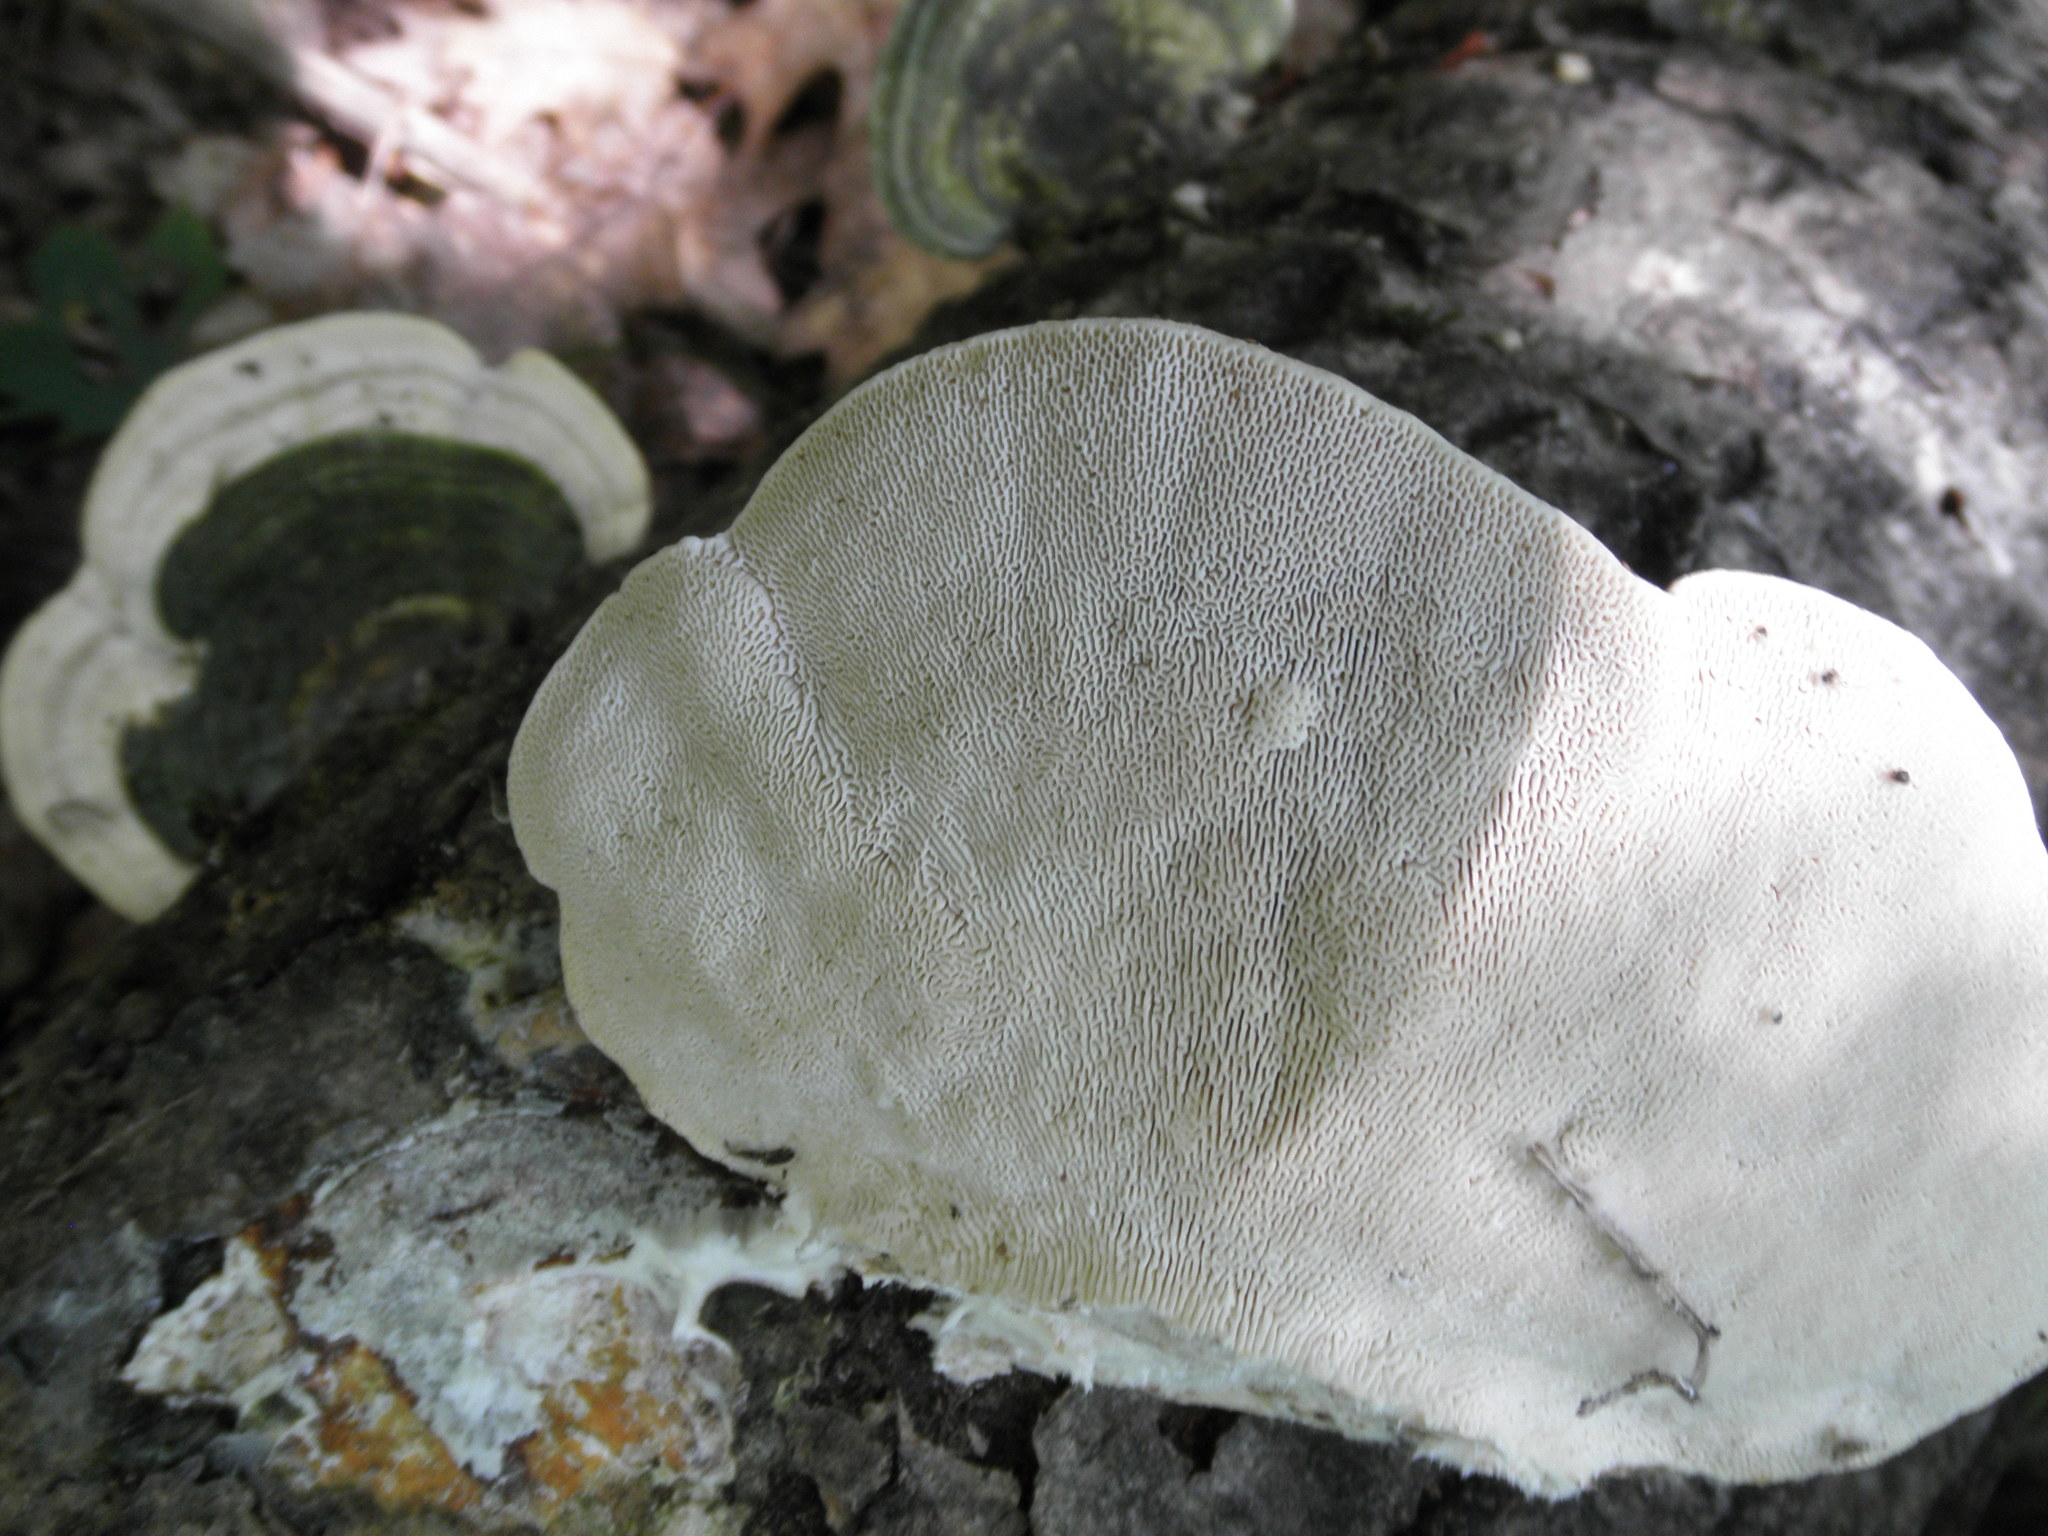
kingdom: Fungi
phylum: Basidiomycota
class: Agaricomycetes
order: Polyporales
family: Polyporaceae
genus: Trametes
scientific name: Trametes gibbosa
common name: Lumpy bracket
